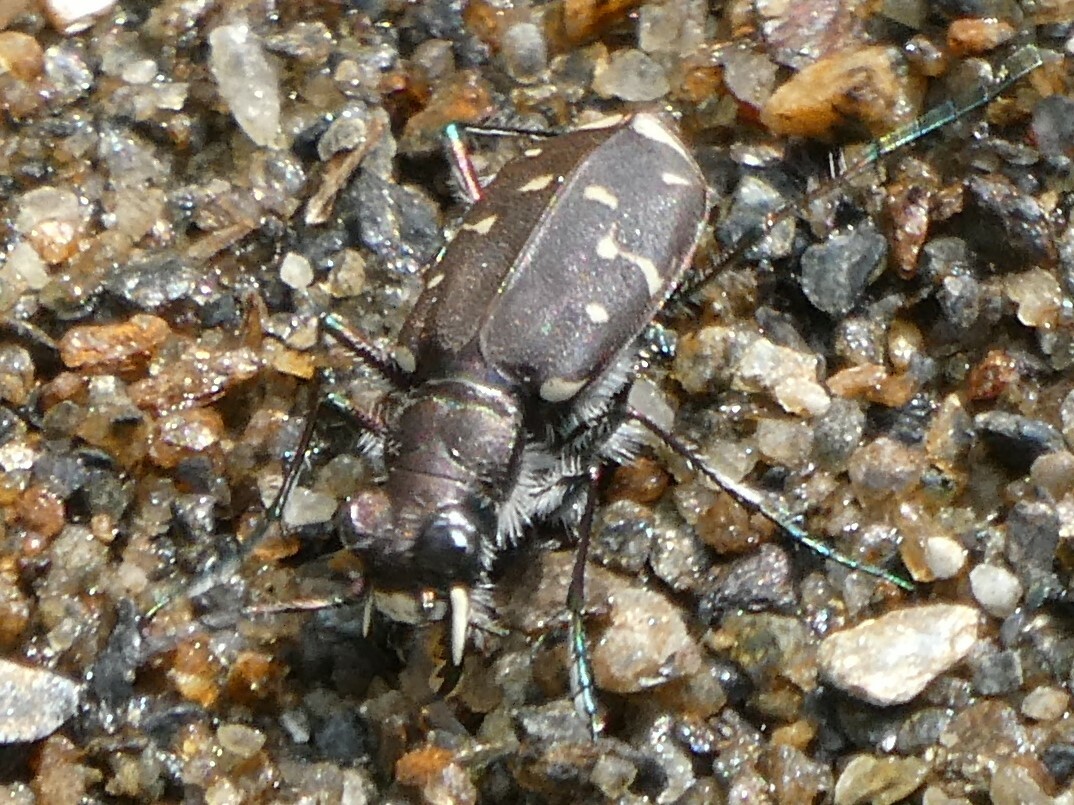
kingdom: Animalia
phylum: Arthropoda
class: Insecta
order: Coleoptera
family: Carabidae
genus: Cicindela
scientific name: Cicindela duodecimguttata
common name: Twelve-spotted tiger beetle
